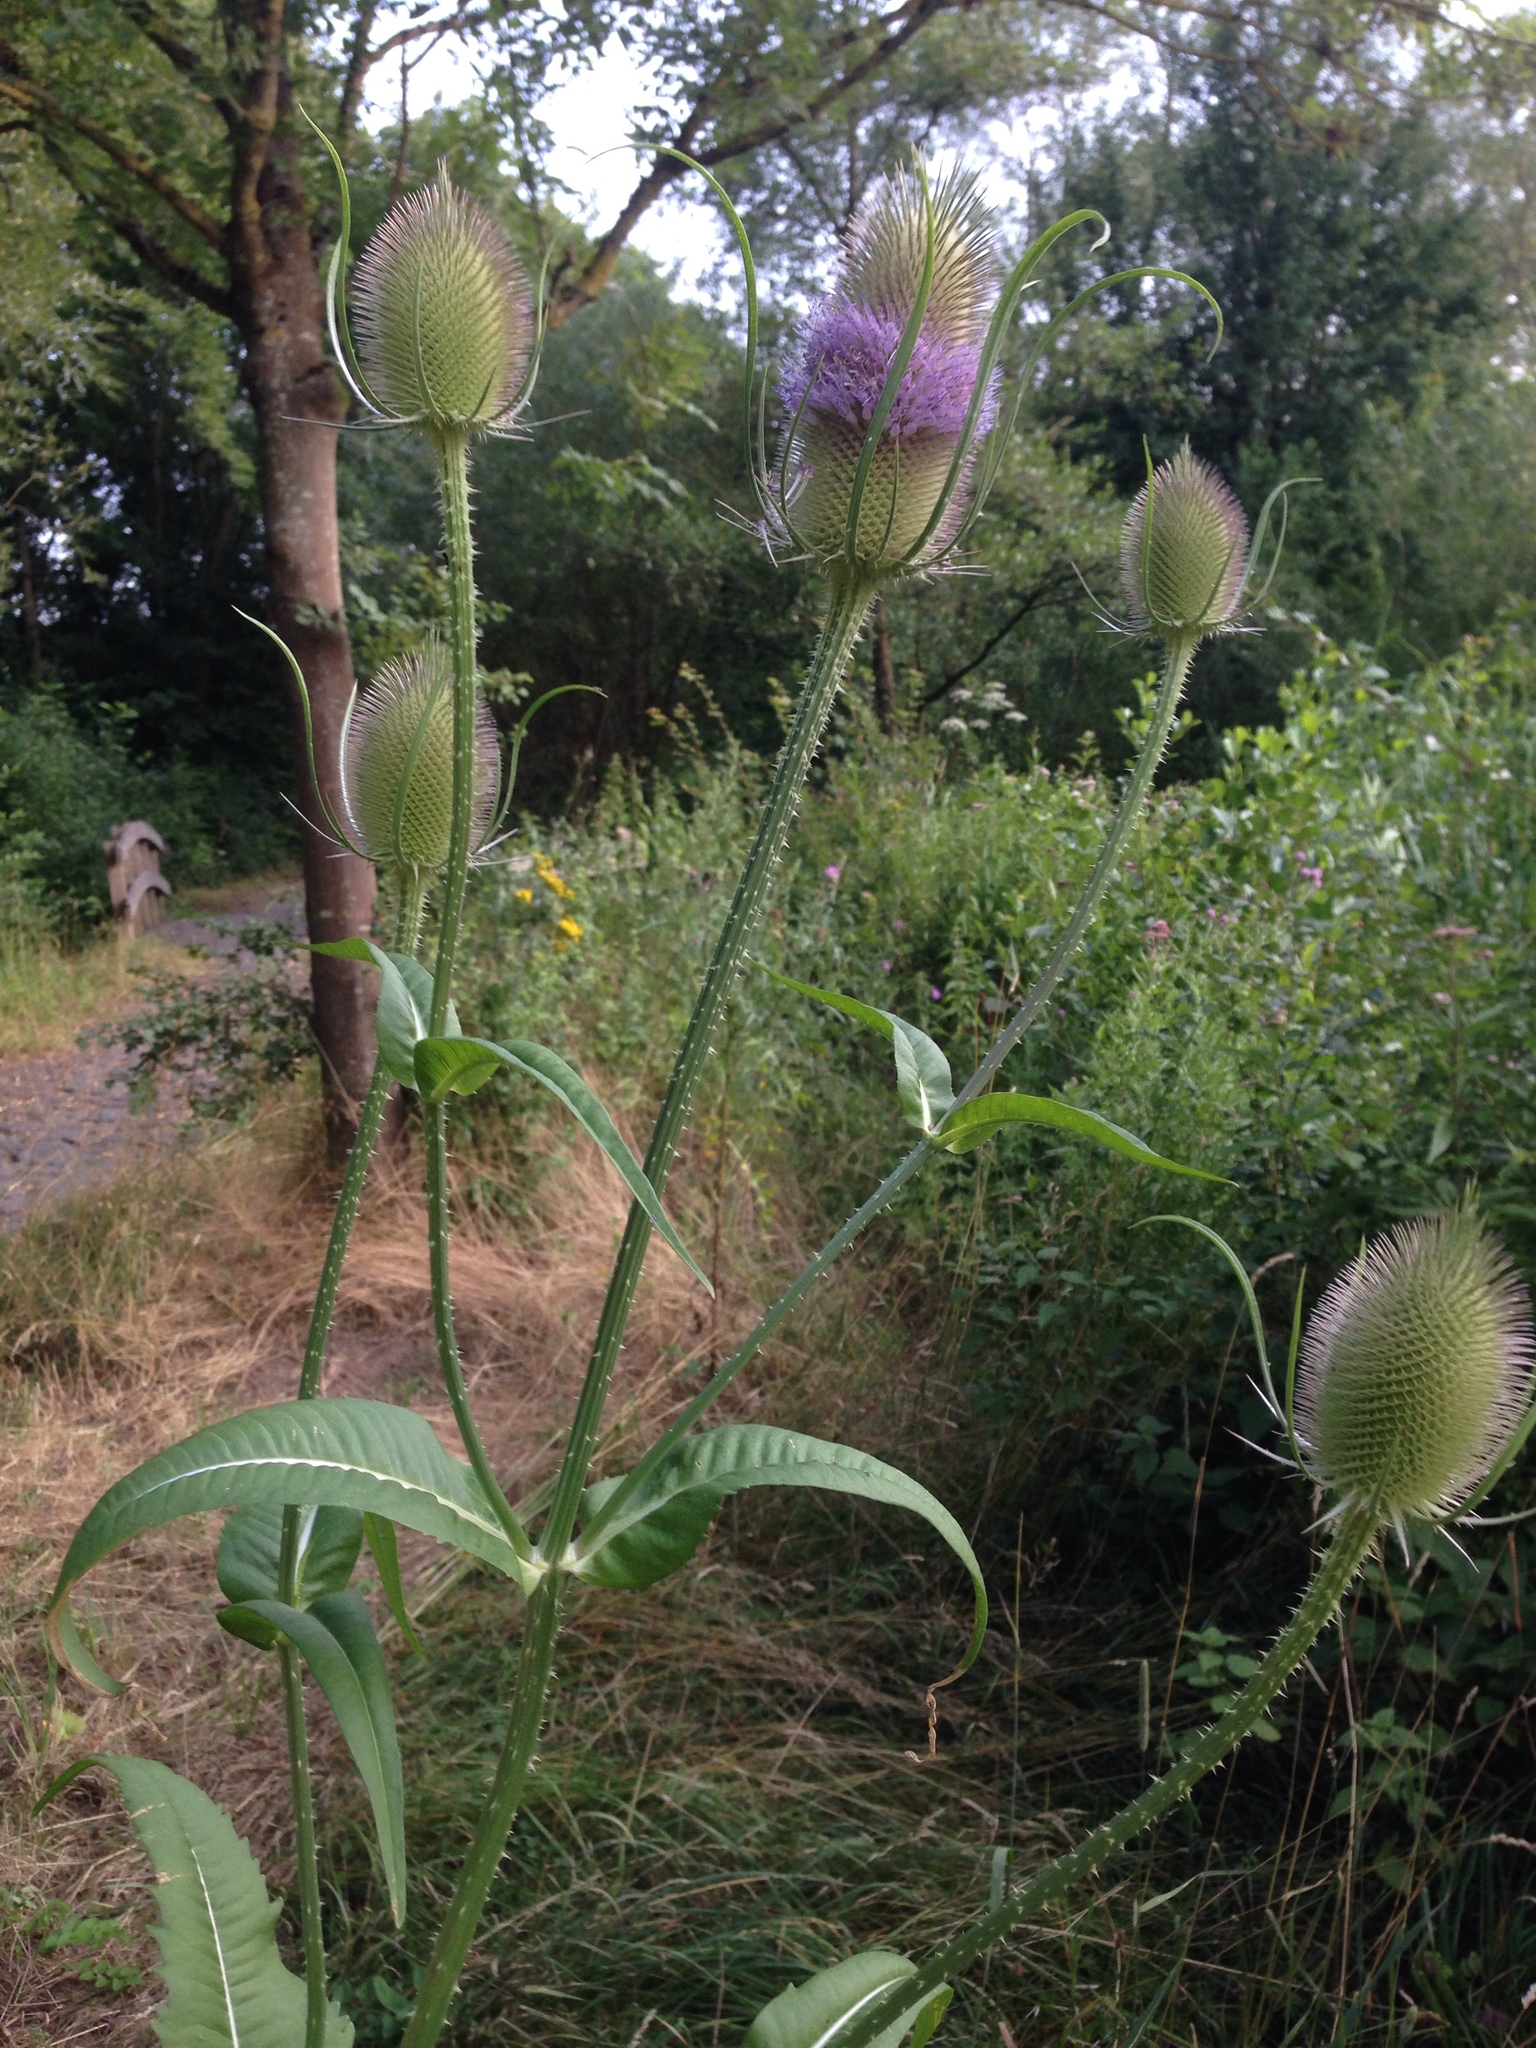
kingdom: Plantae
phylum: Tracheophyta
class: Magnoliopsida
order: Dipsacales
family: Caprifoliaceae
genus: Dipsacus
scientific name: Dipsacus fullonum
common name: Teasel
